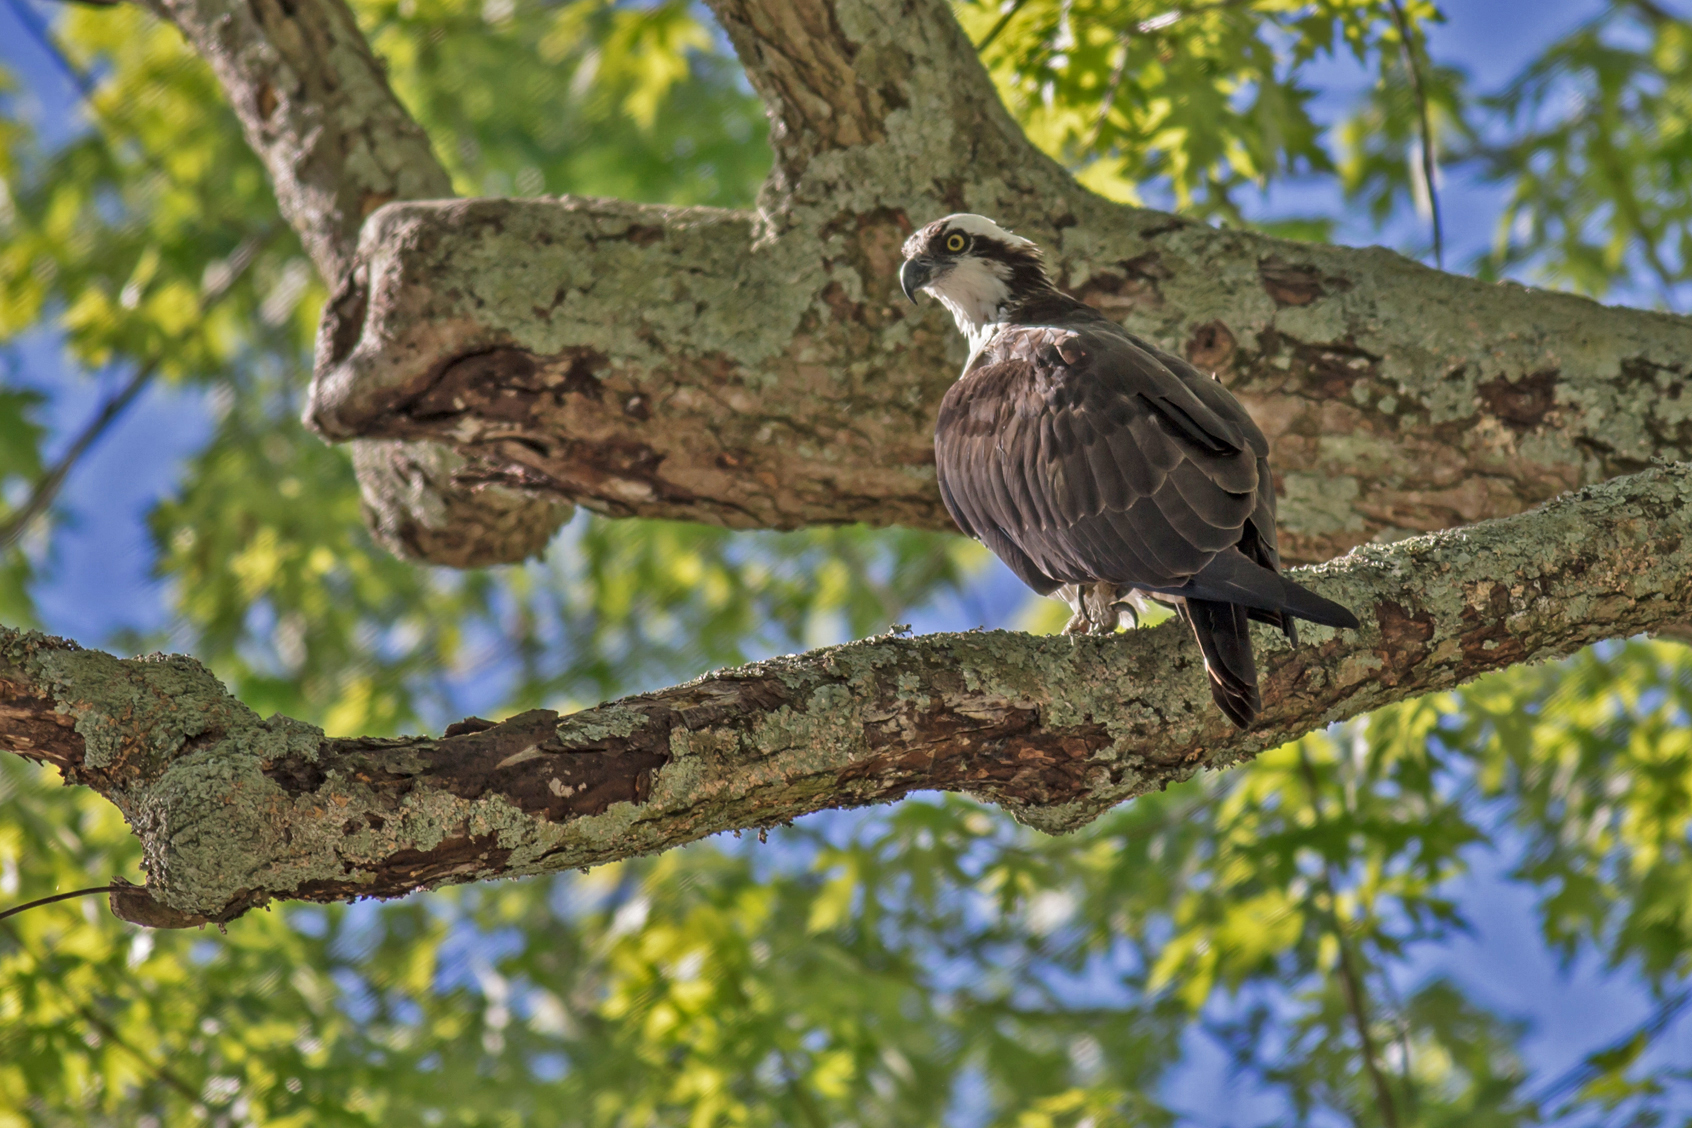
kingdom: Animalia
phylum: Chordata
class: Aves
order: Accipitriformes
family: Pandionidae
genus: Pandion
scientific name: Pandion haliaetus
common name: Osprey
